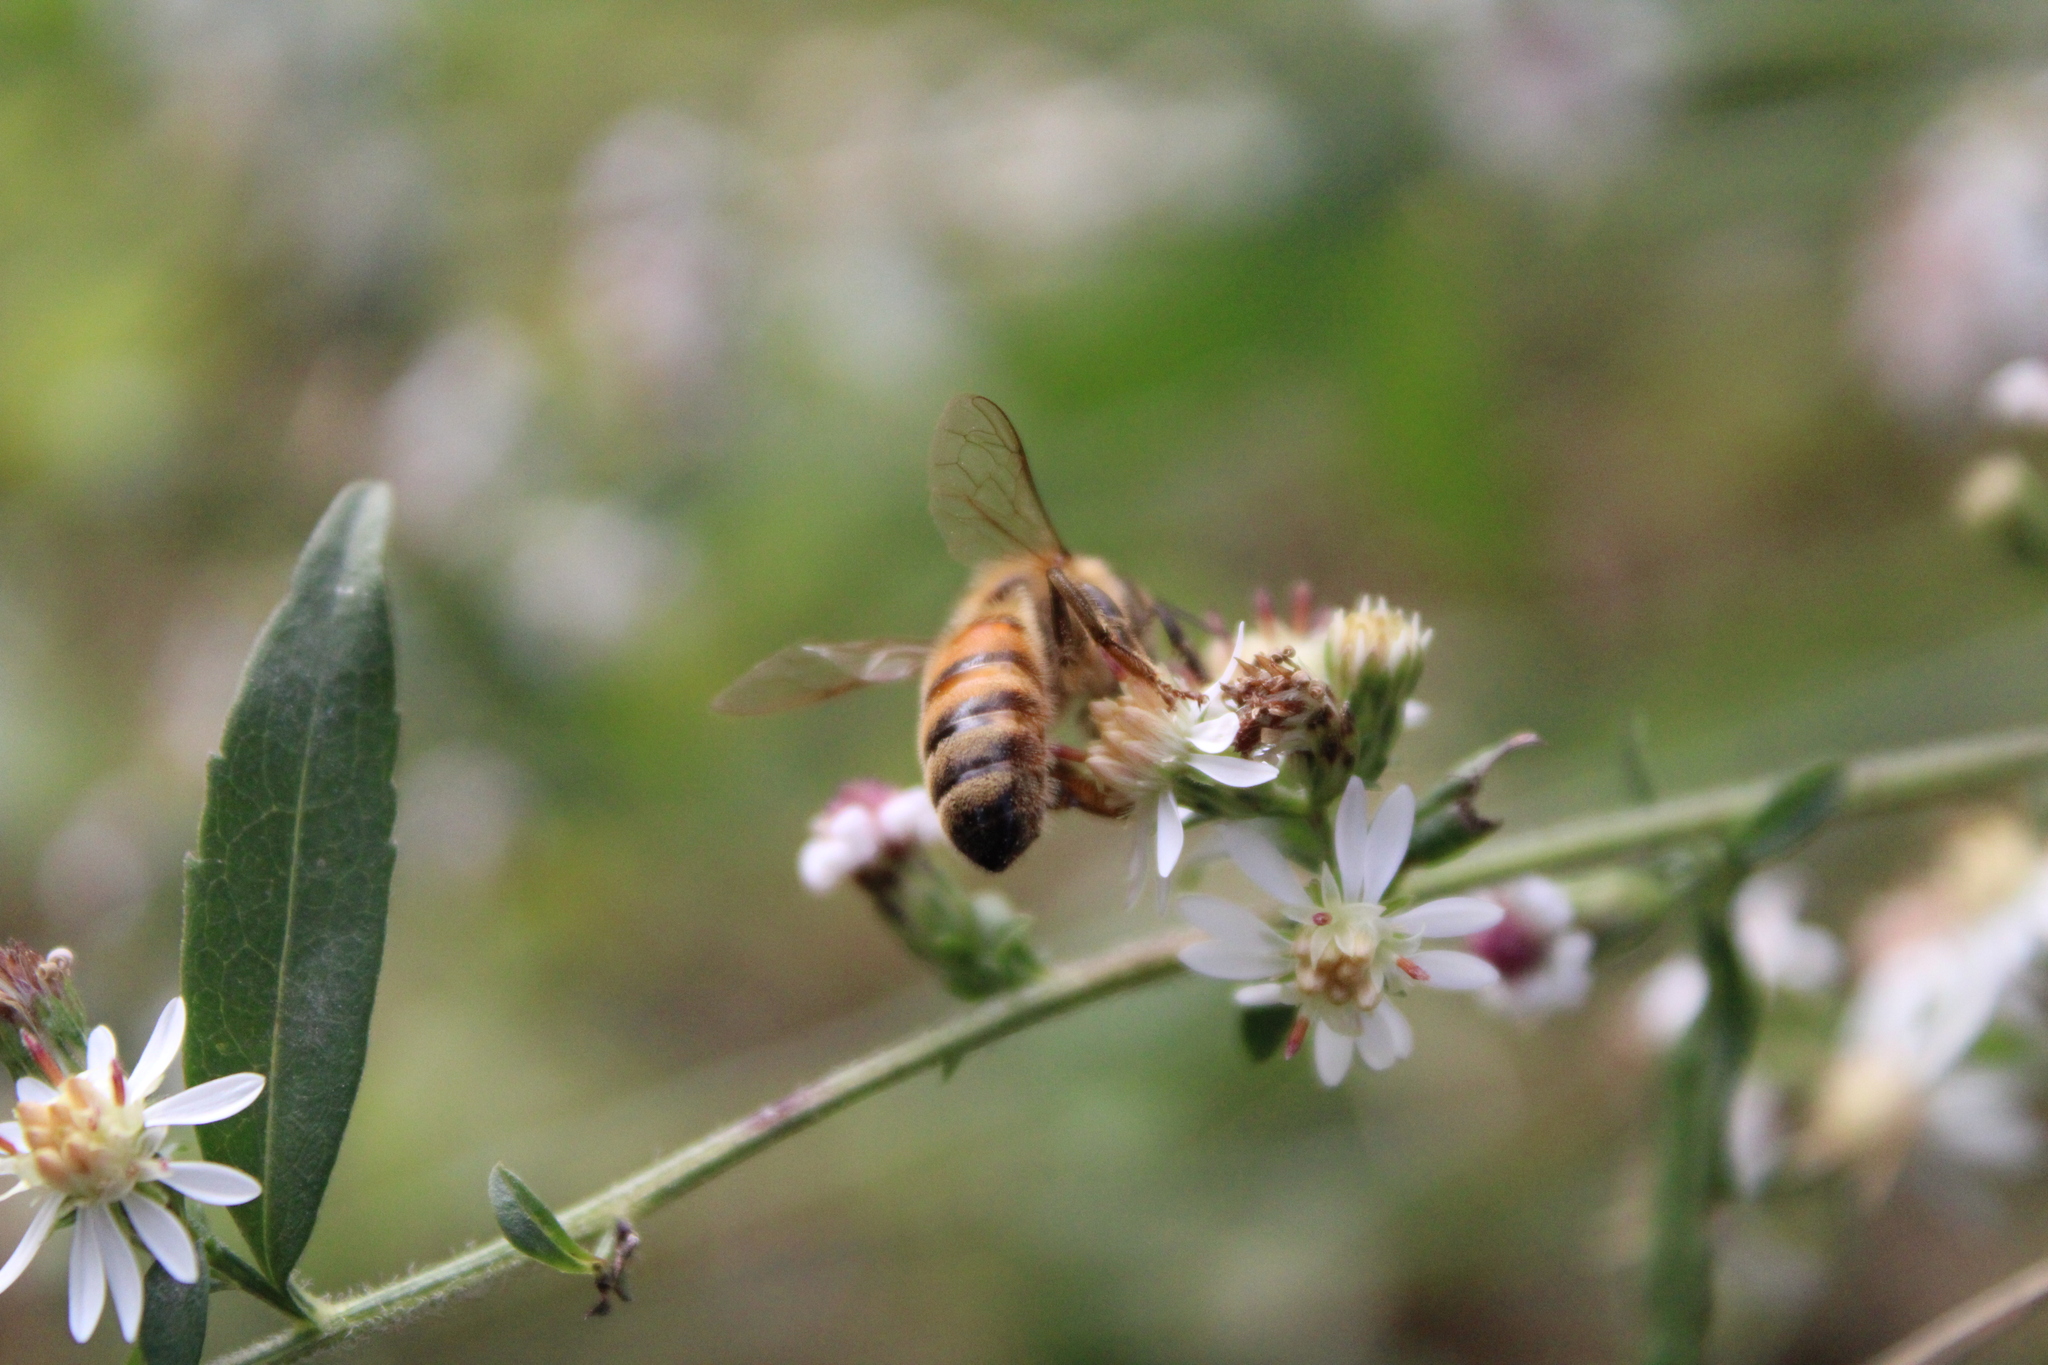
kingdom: Animalia
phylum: Arthropoda
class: Insecta
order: Hymenoptera
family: Apidae
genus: Apis
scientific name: Apis mellifera
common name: Honey bee
